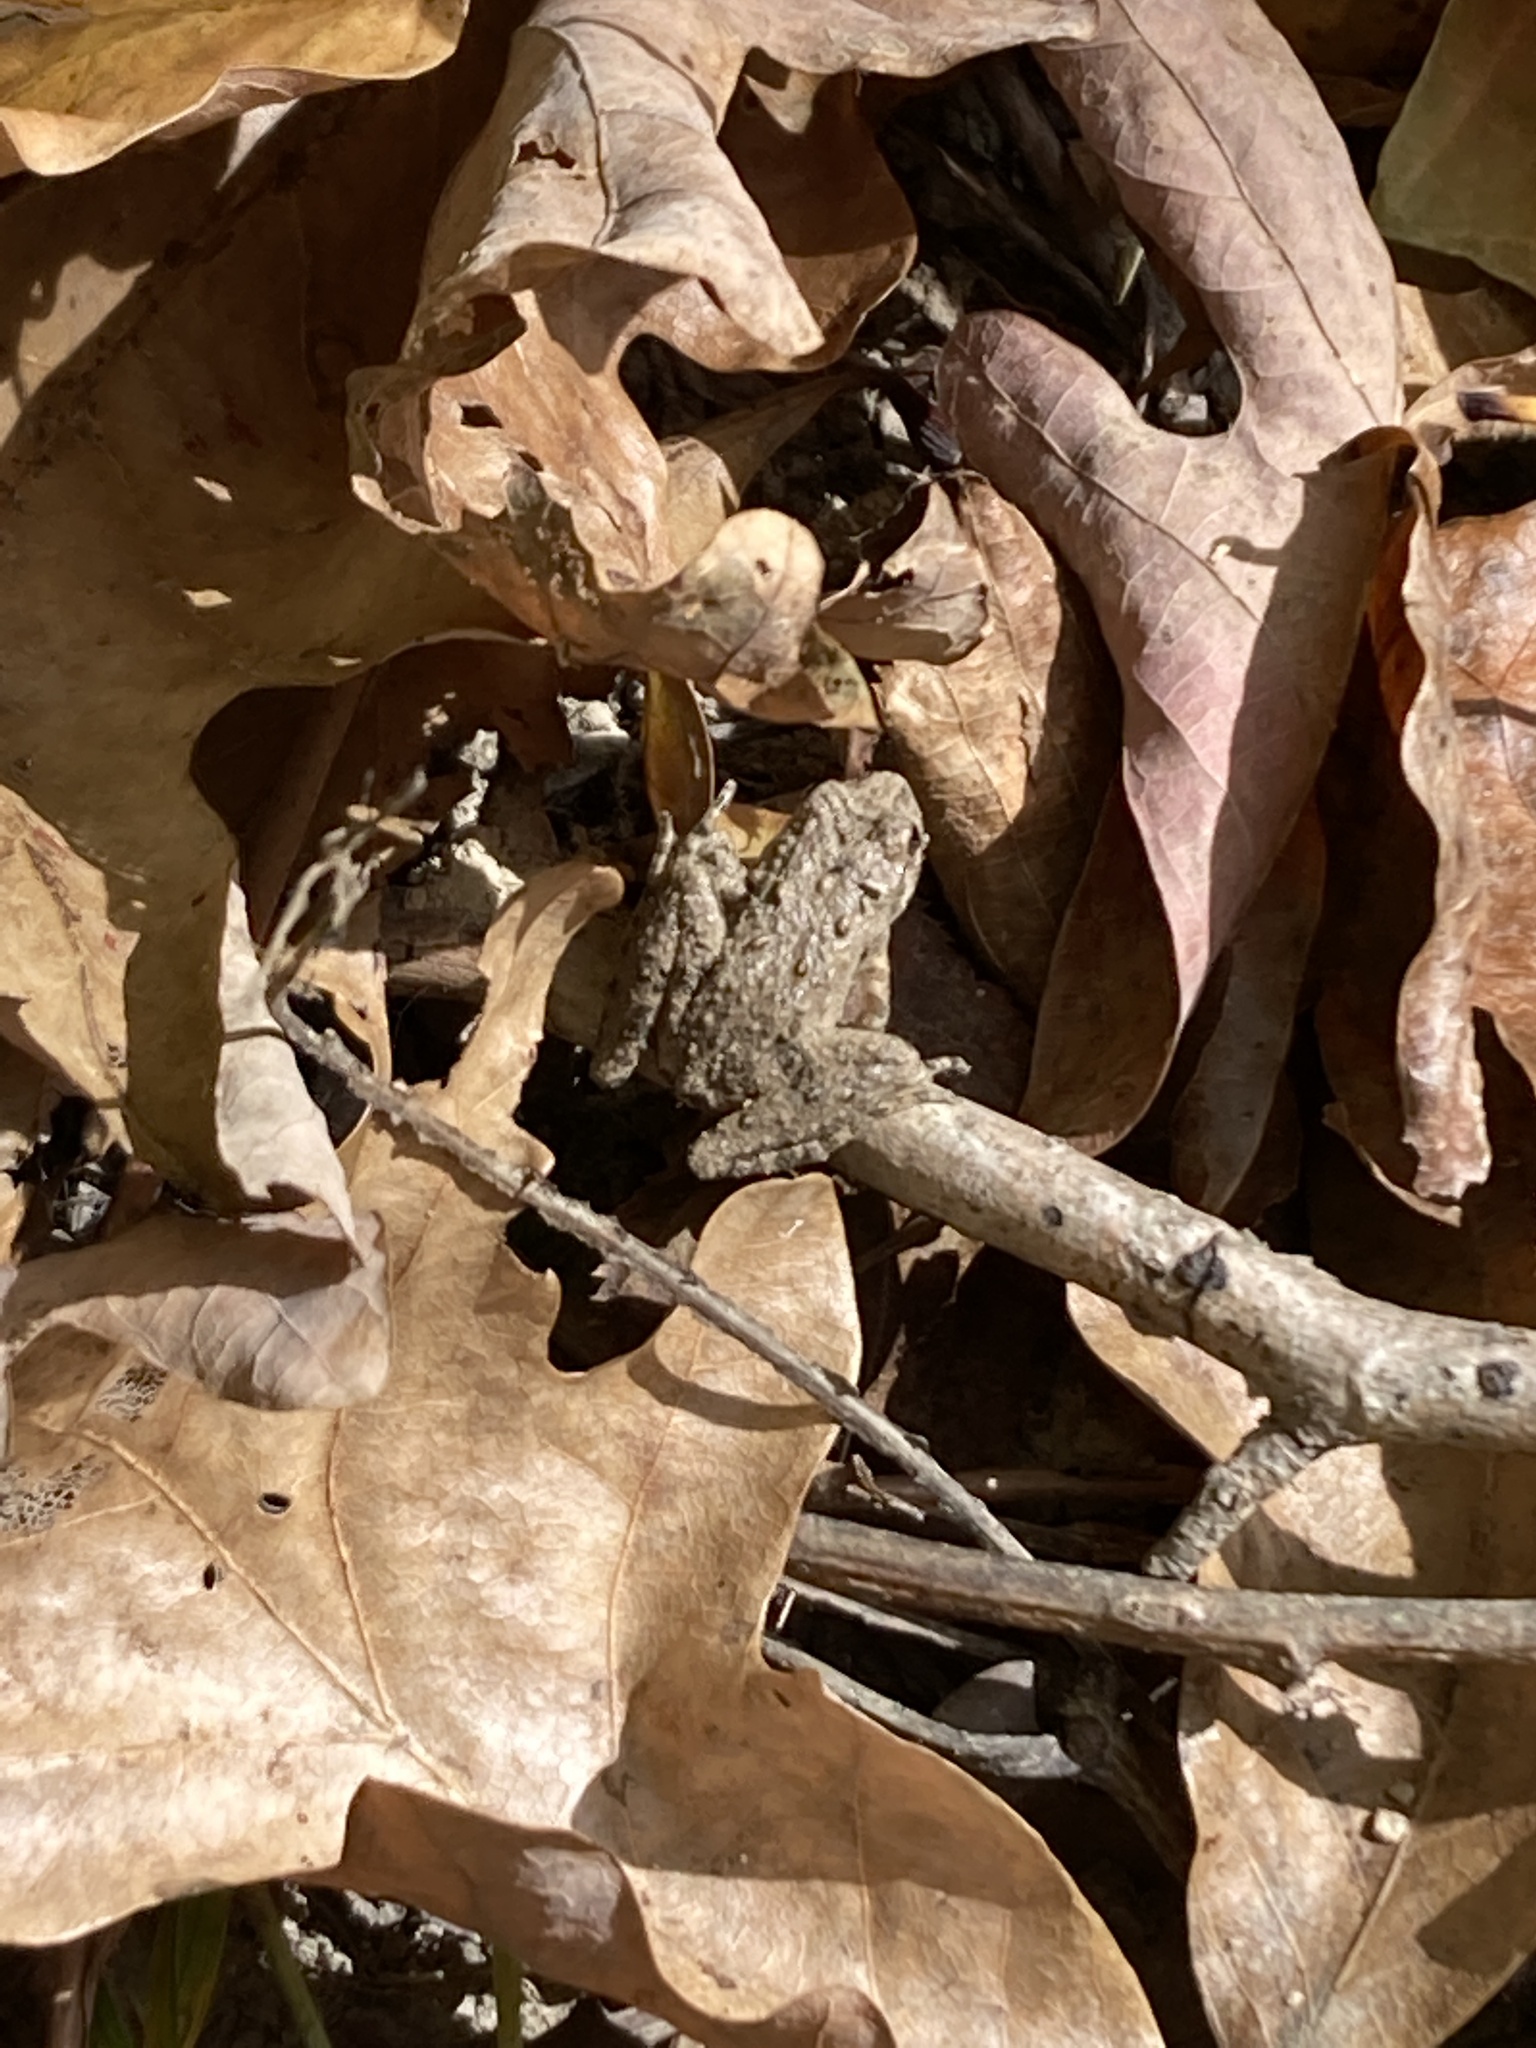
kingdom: Animalia
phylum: Chordata
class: Amphibia
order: Anura
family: Hylidae
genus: Acris
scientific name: Acris blanchardi
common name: Blanchard's cricket frog
